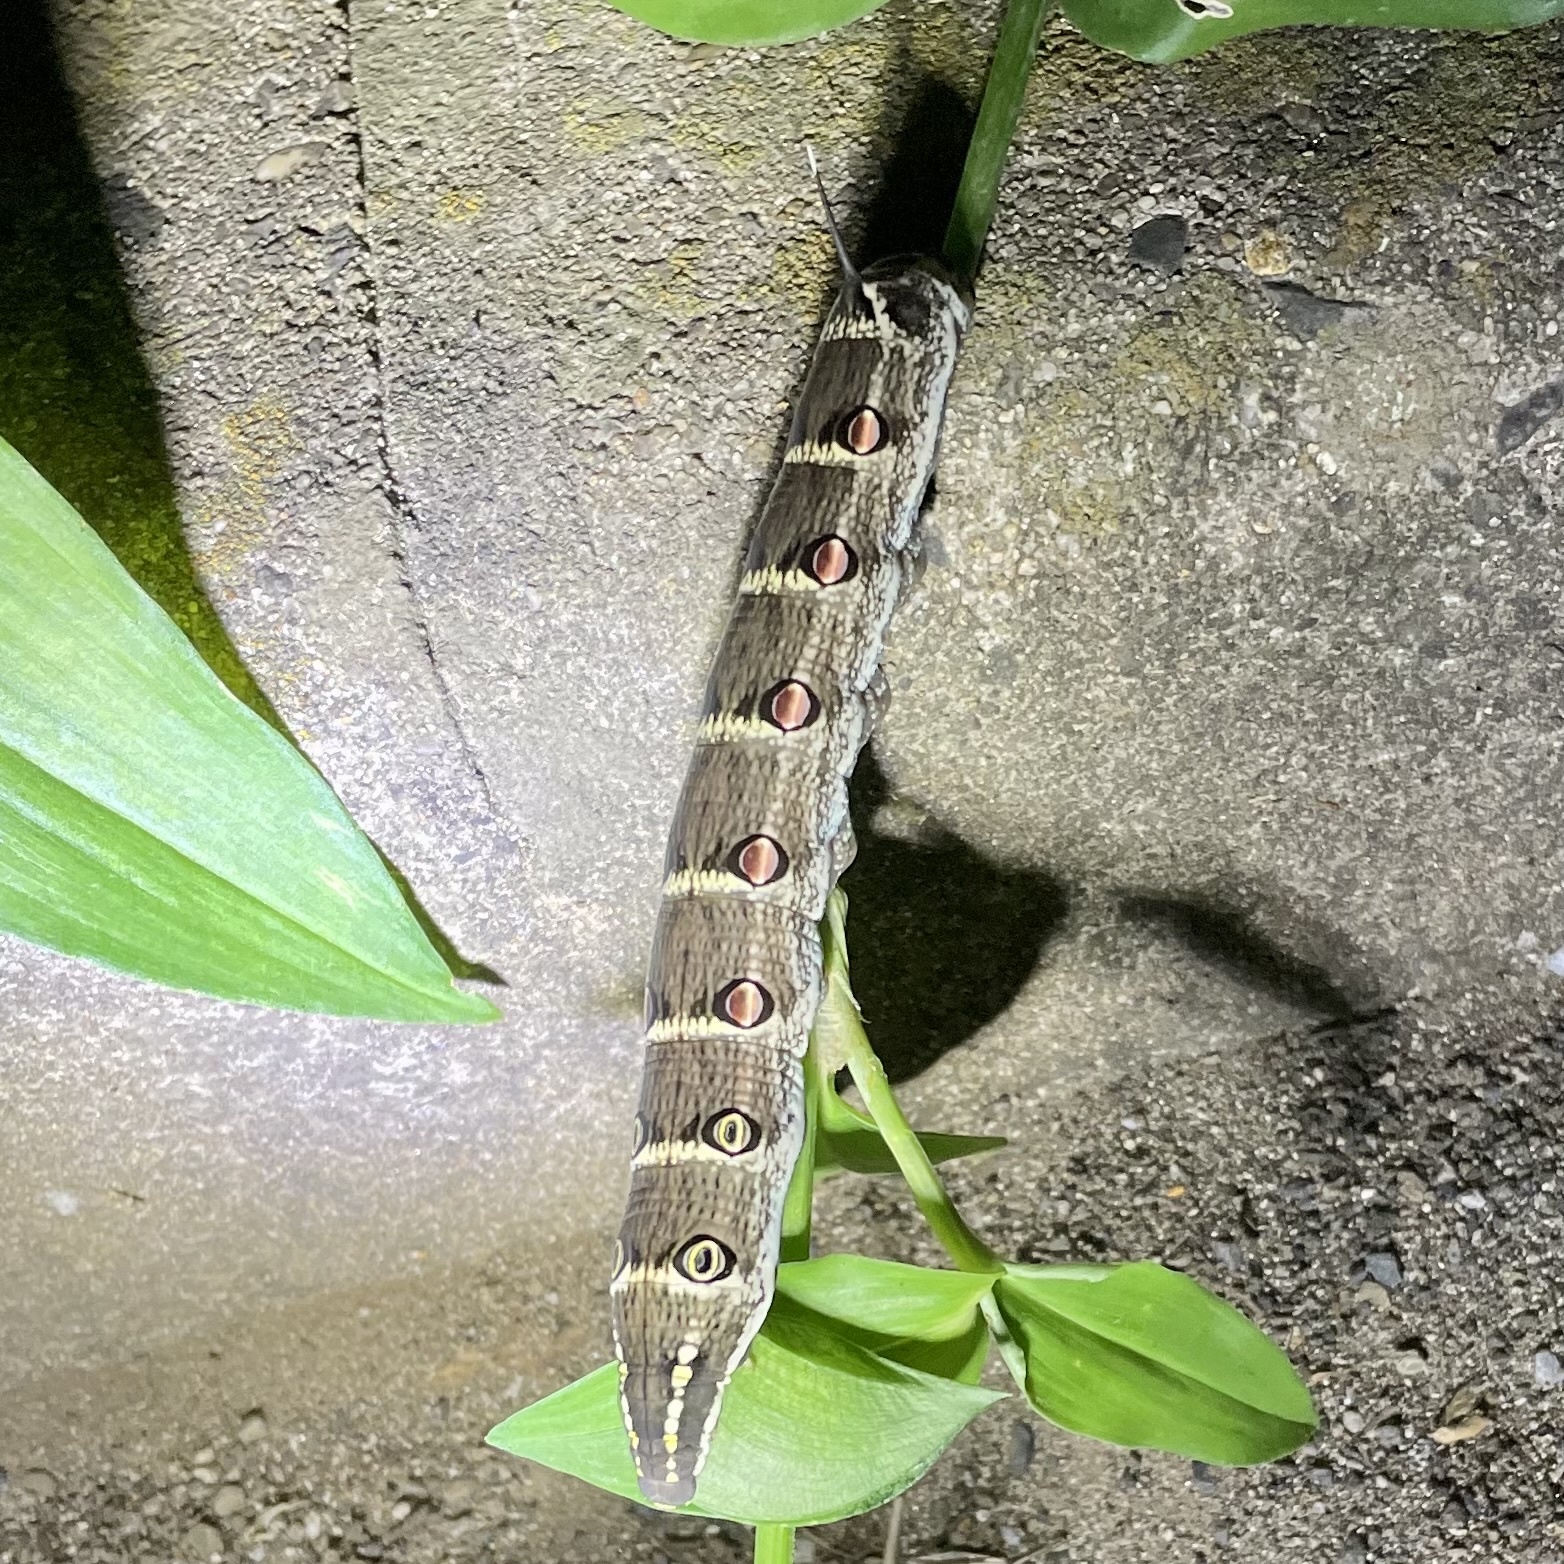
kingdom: Animalia
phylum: Arthropoda
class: Insecta
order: Lepidoptera
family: Sphingidae
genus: Theretra
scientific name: Theretra oldenlandiae
